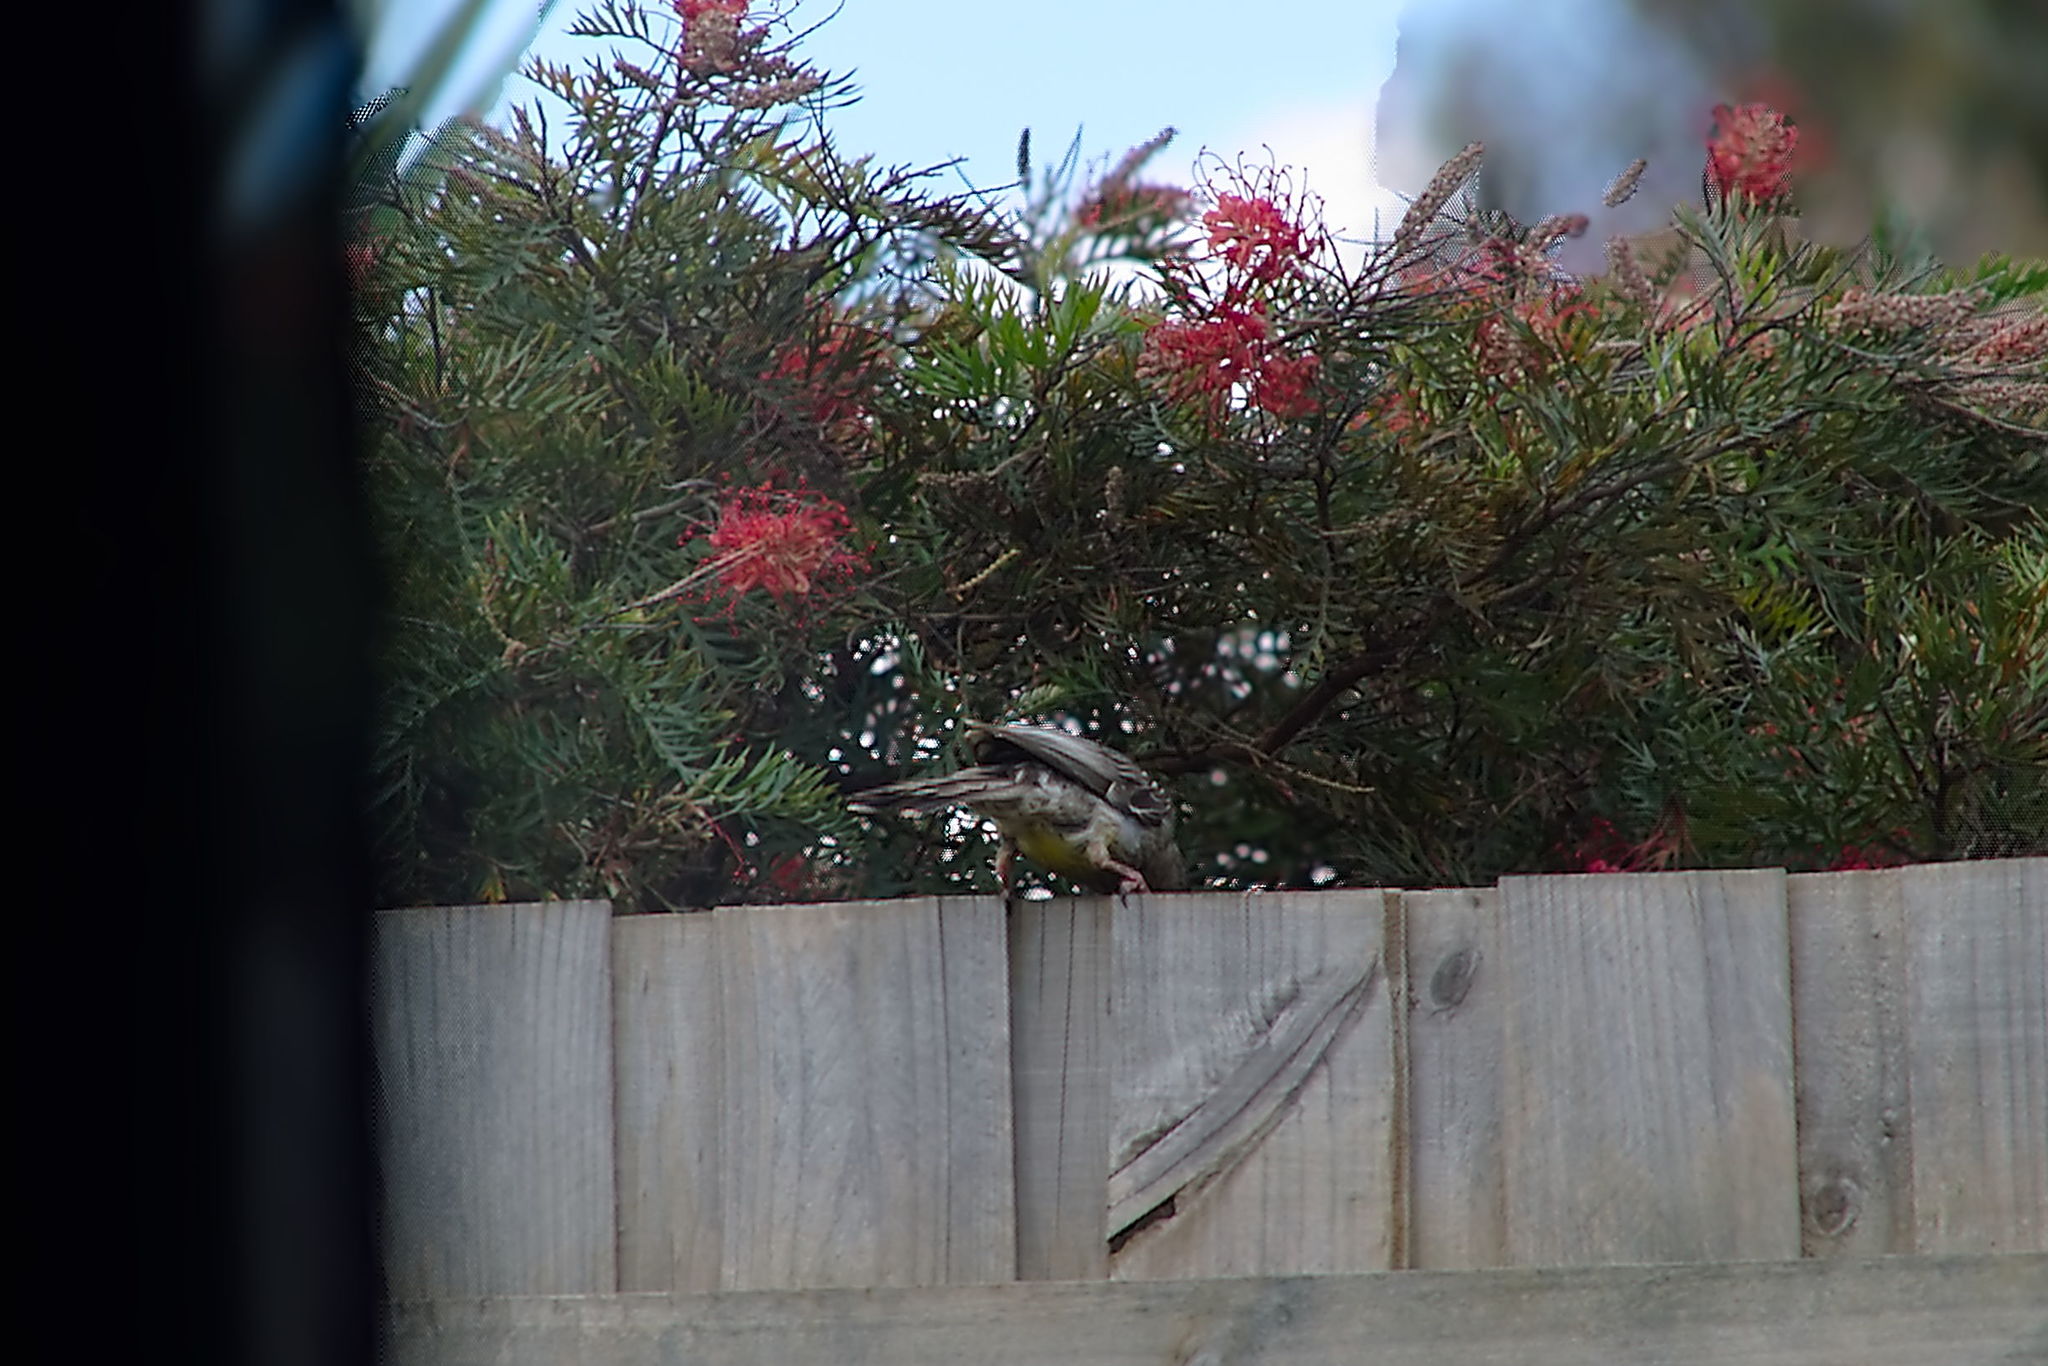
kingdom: Animalia
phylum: Chordata
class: Aves
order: Passeriformes
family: Meliphagidae
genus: Anthochaera
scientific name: Anthochaera carunculata
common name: Red wattlebird
